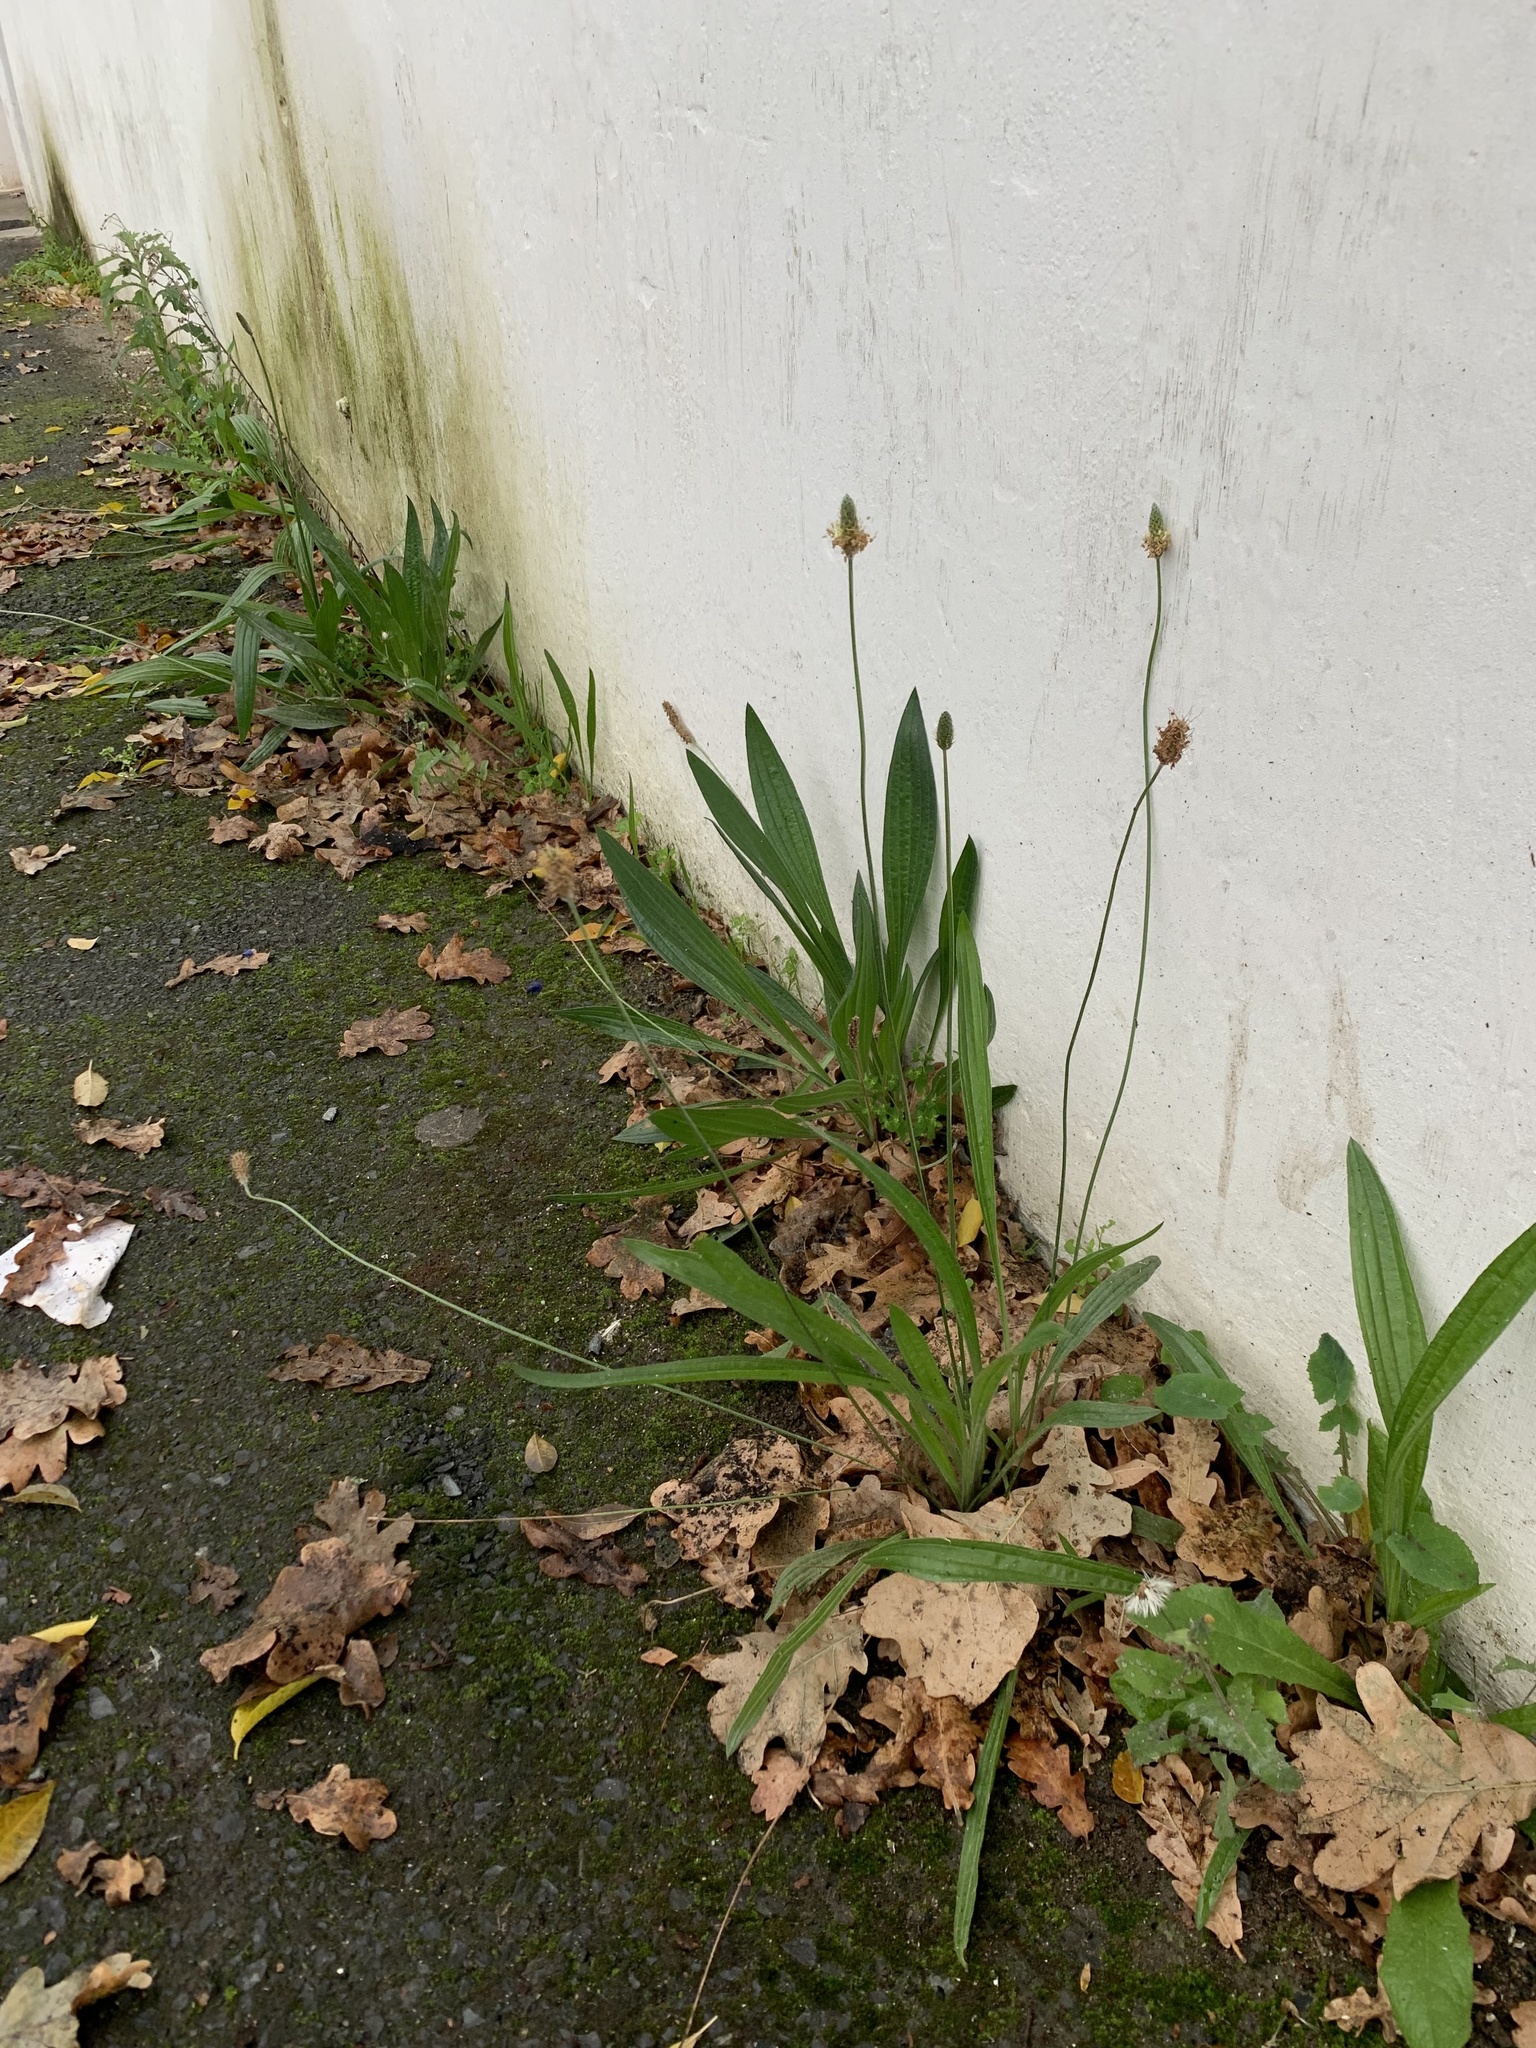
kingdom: Plantae
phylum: Tracheophyta
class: Magnoliopsida
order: Lamiales
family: Plantaginaceae
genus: Plantago
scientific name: Plantago lanceolata
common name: Ribwort plantain
